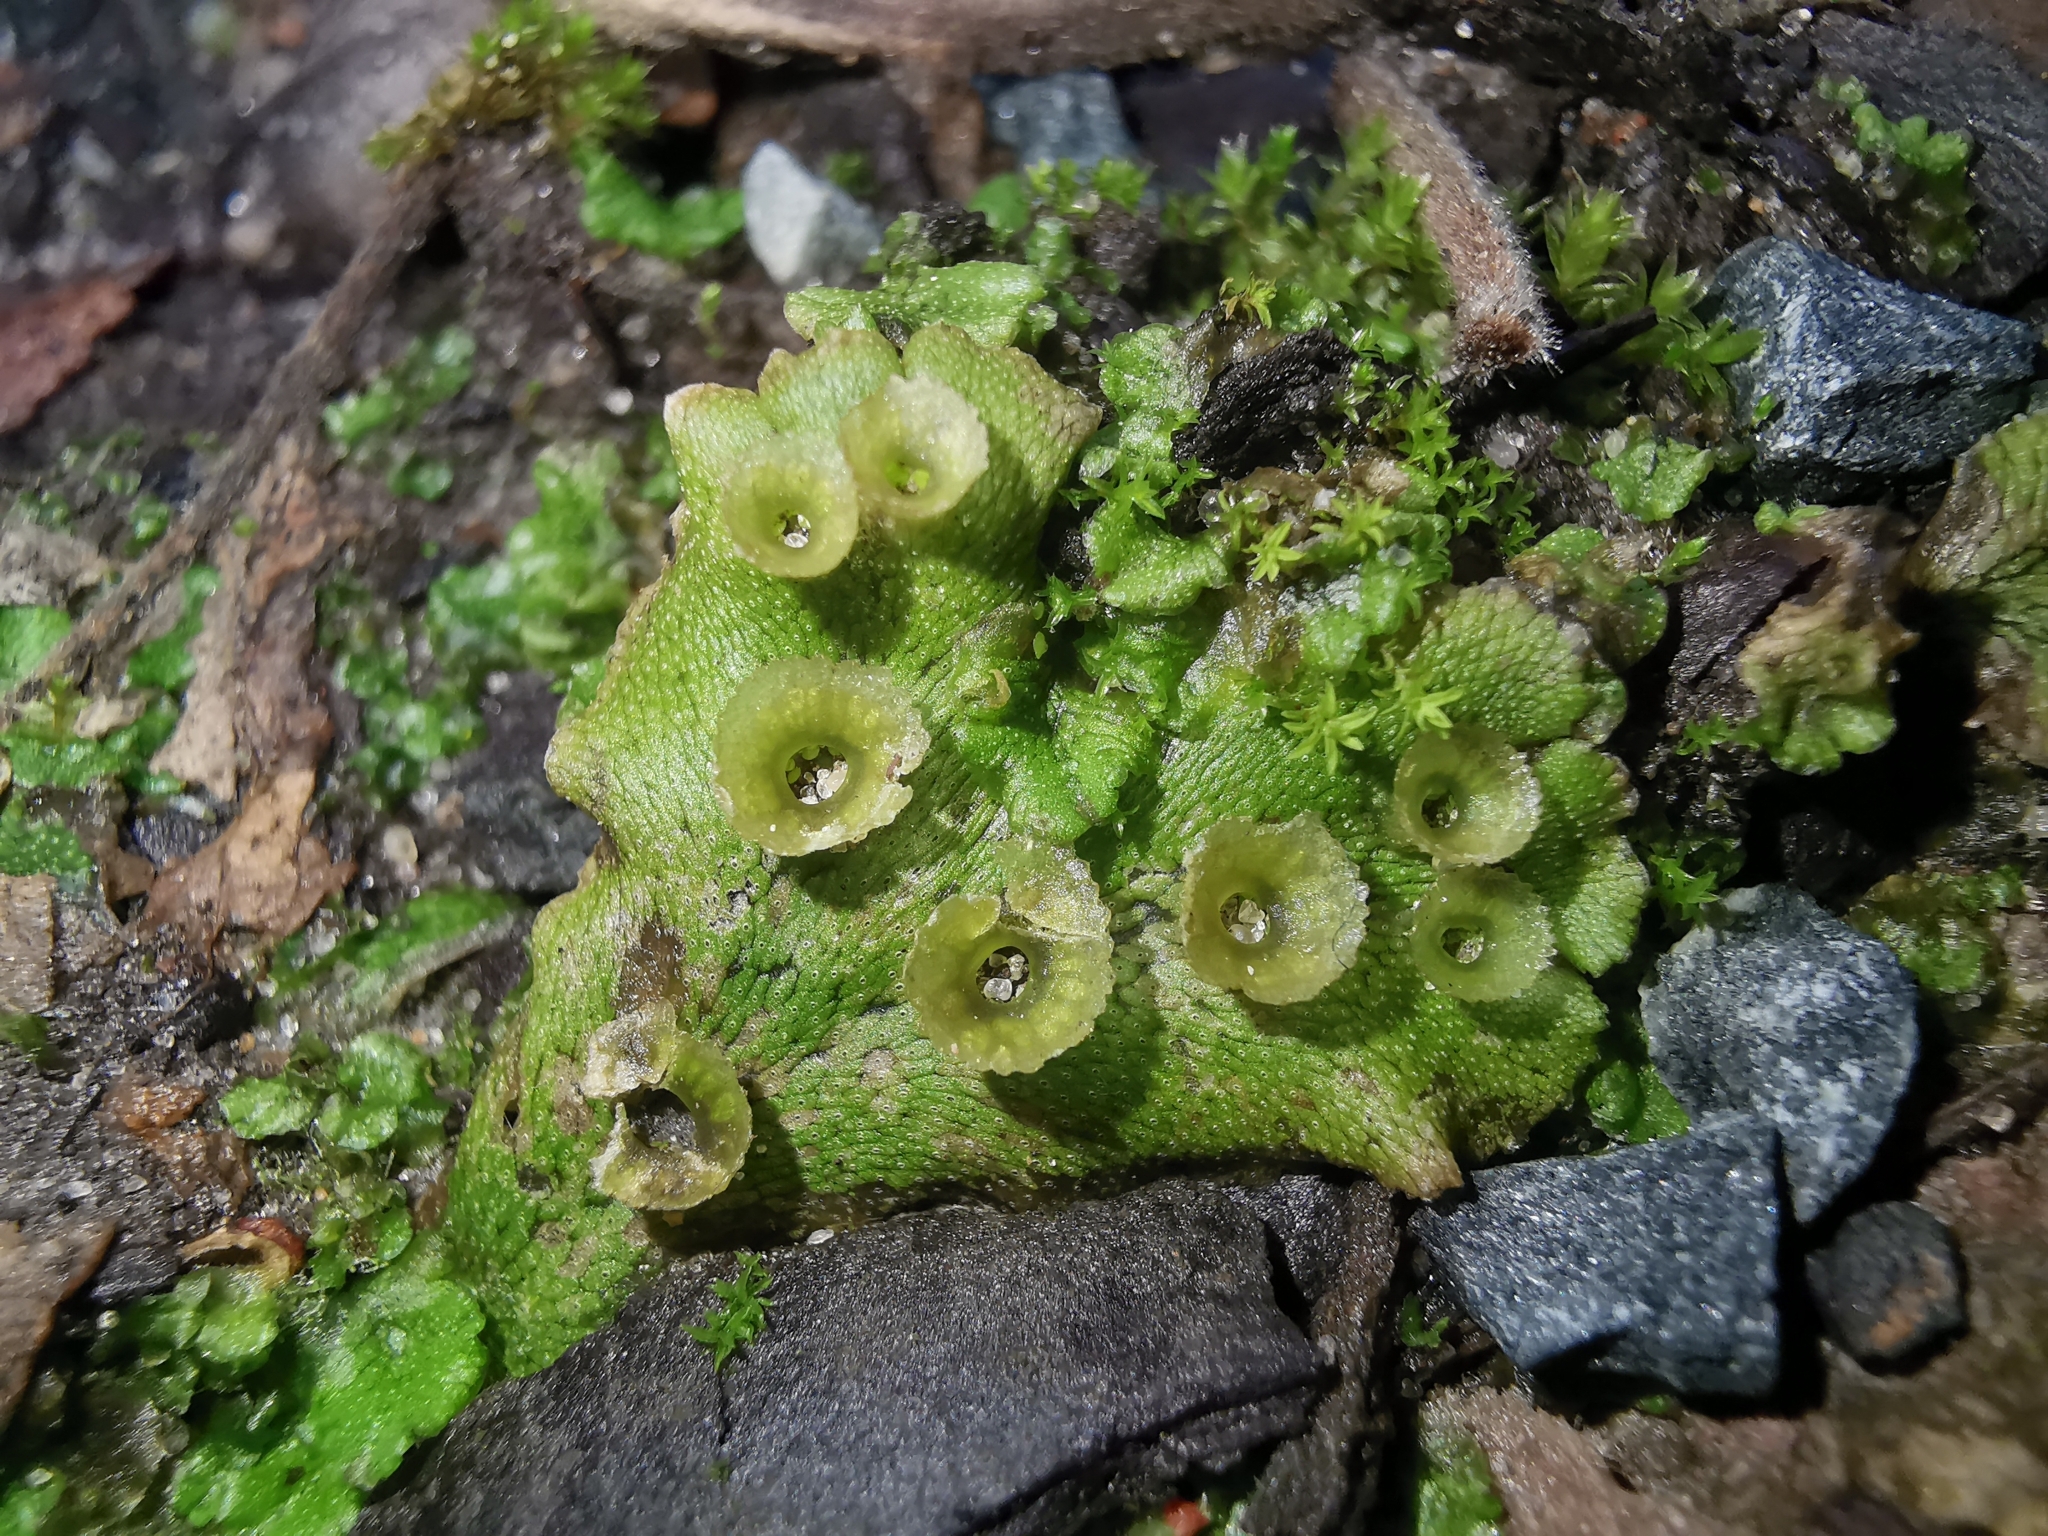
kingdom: Plantae
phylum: Marchantiophyta
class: Marchantiopsida
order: Marchantiales
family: Marchantiaceae
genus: Marchantia
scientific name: Marchantia polymorpha
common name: Common liverwort
